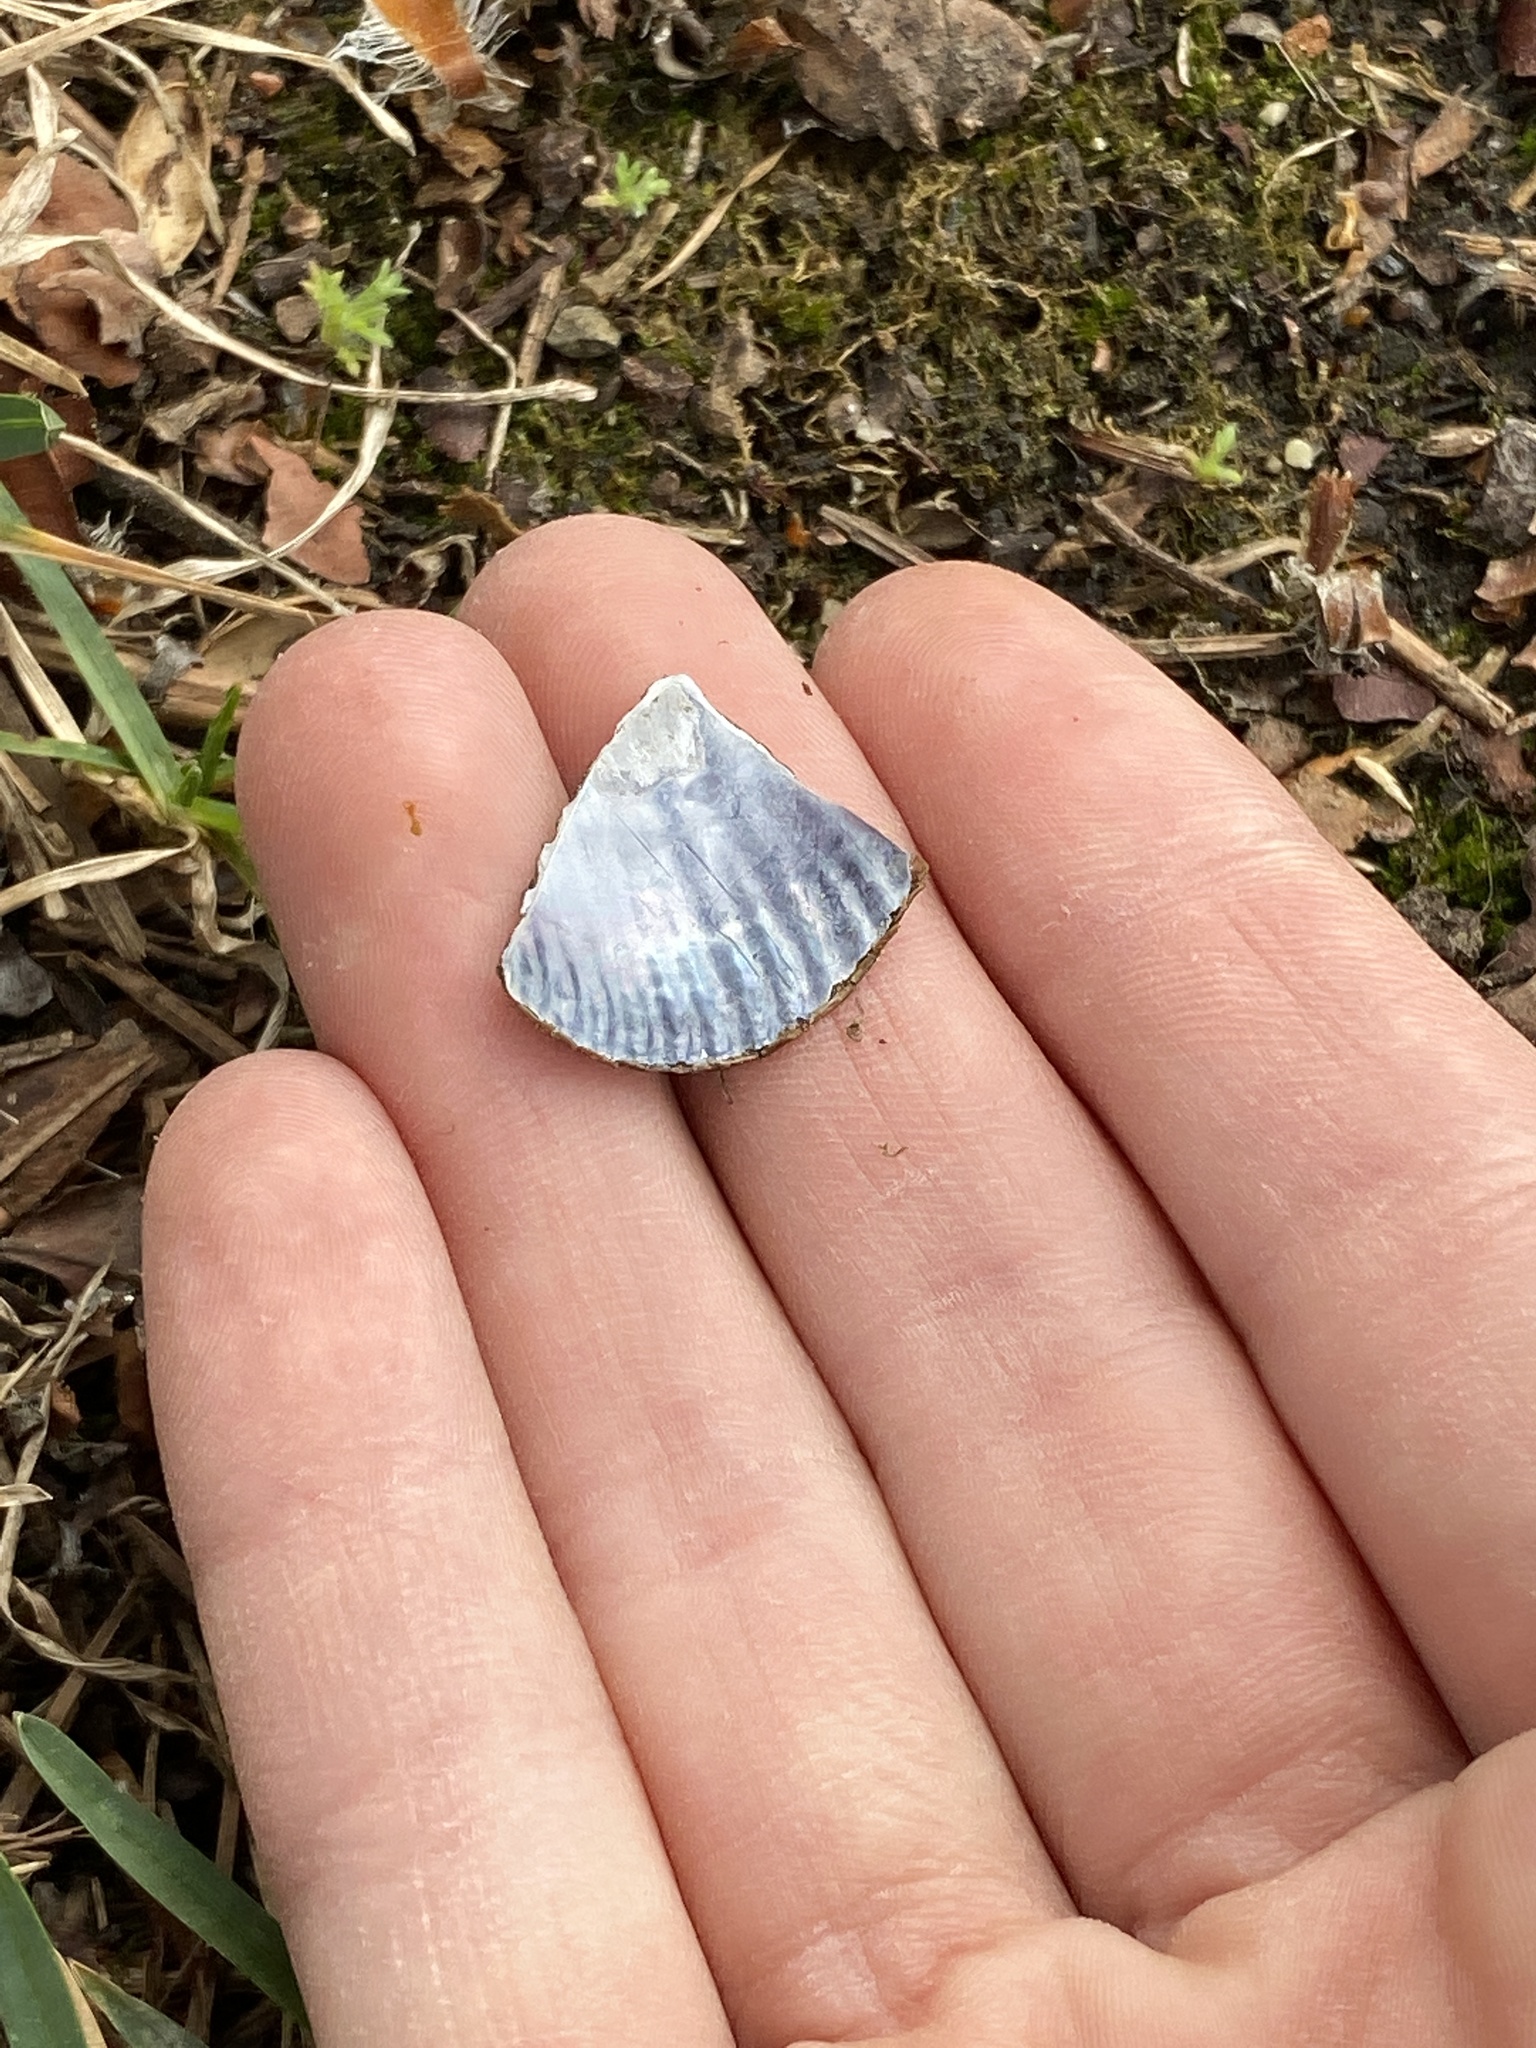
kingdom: Animalia
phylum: Mollusca
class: Bivalvia
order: Mytilida
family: Mytilidae
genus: Geukensia
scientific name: Geukensia demissa
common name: Ribbed mussel
